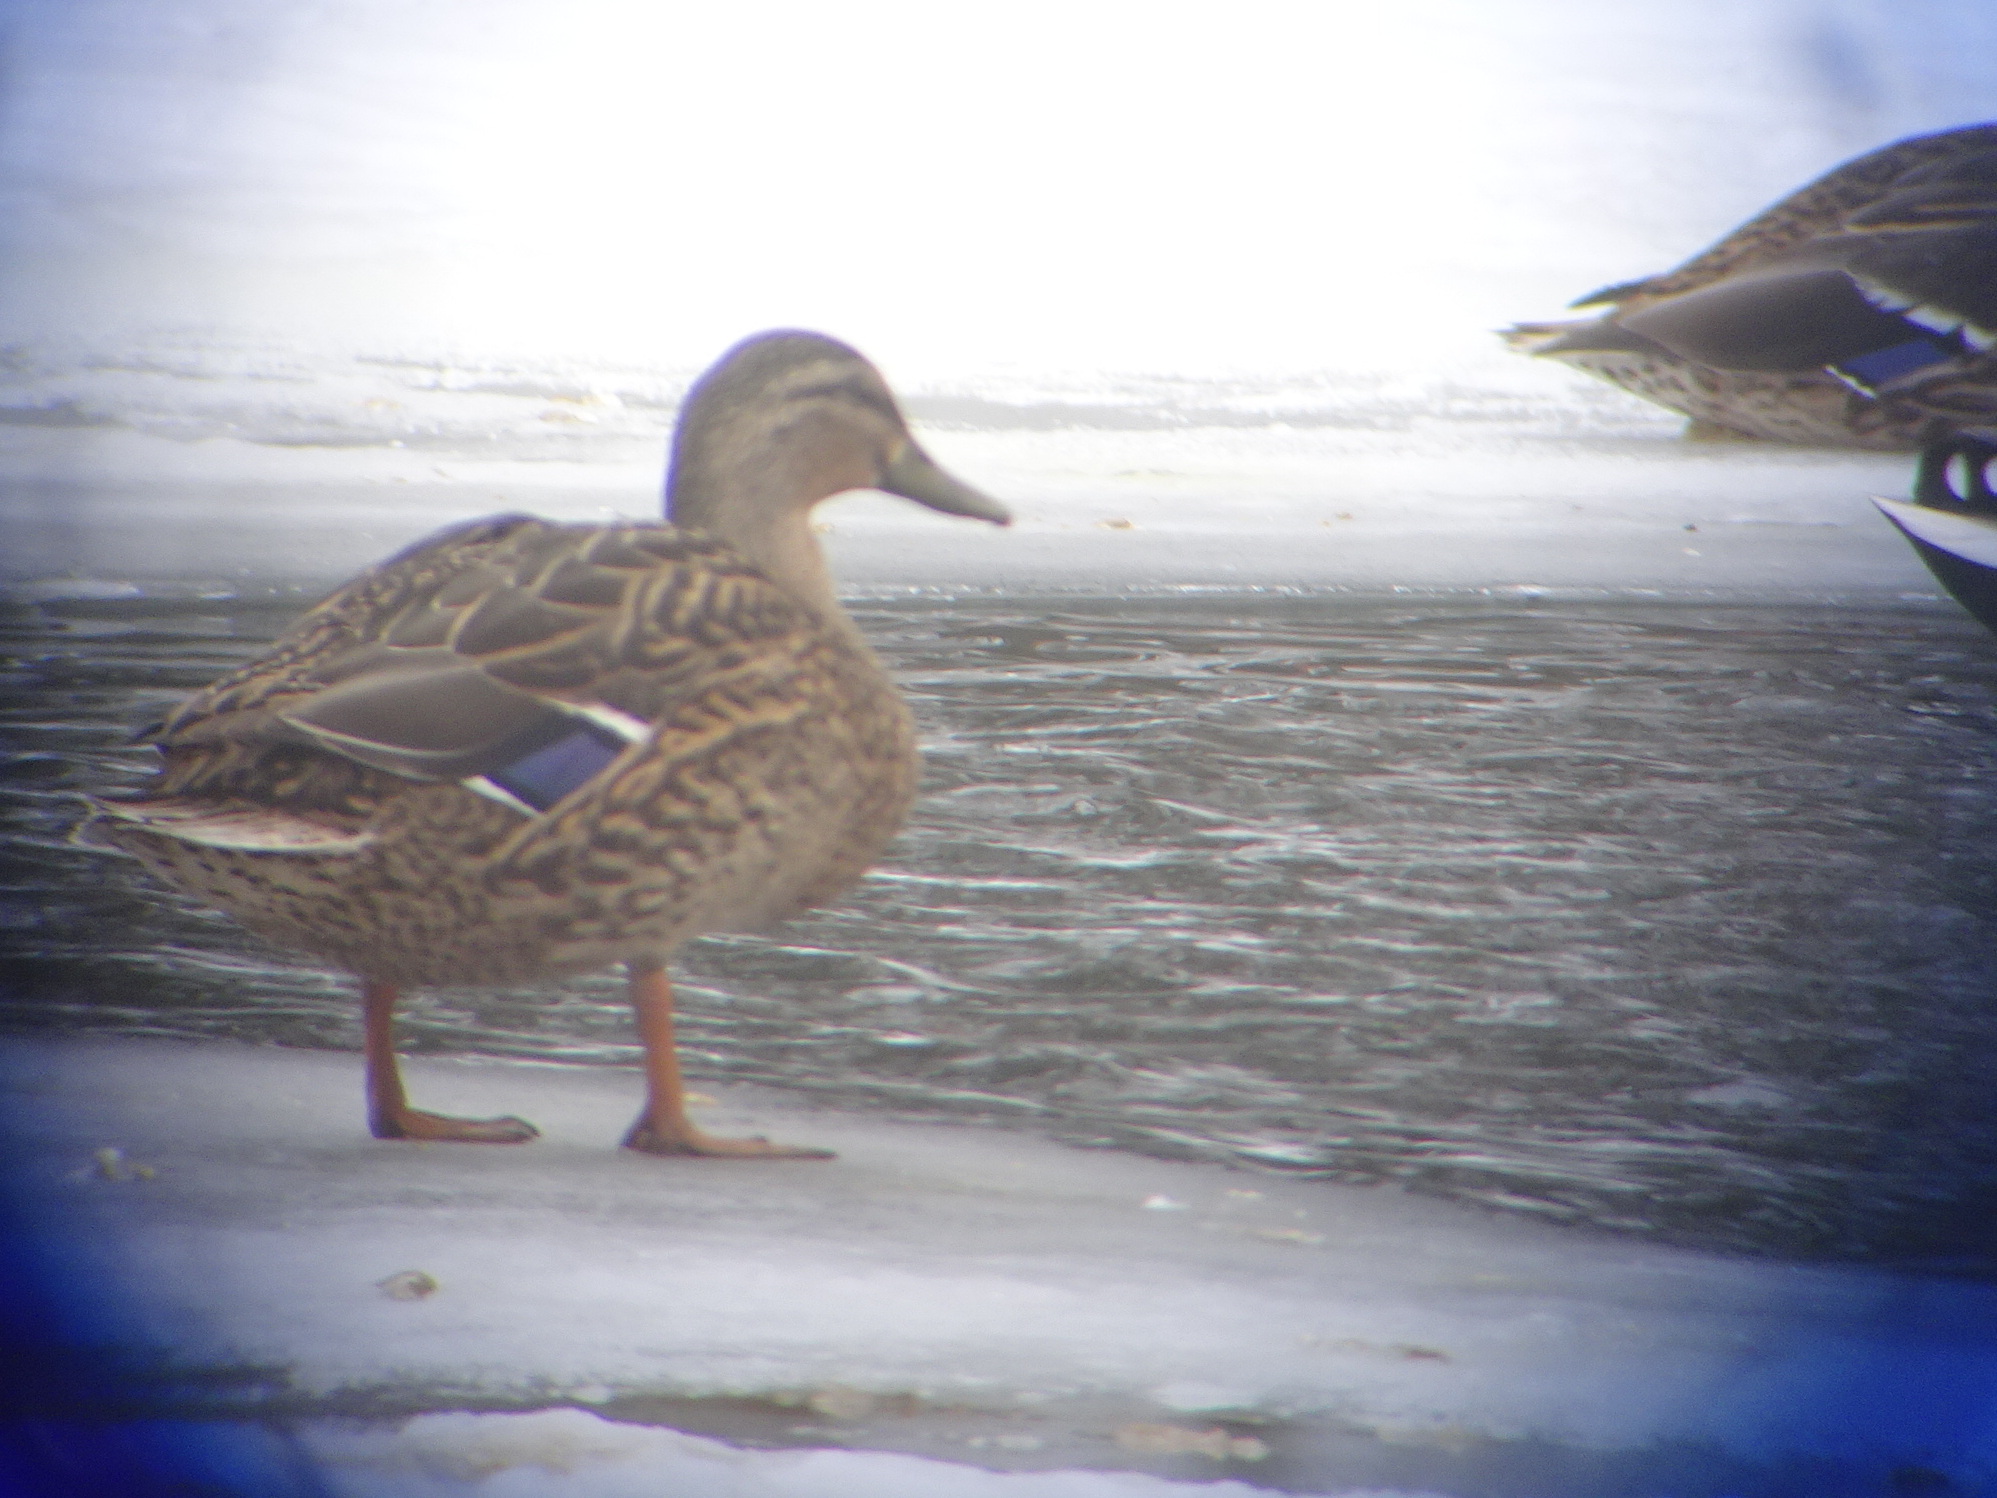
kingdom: Animalia
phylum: Chordata
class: Aves
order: Anseriformes
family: Anatidae
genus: Anas
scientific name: Anas platyrhynchos
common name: Mallard
